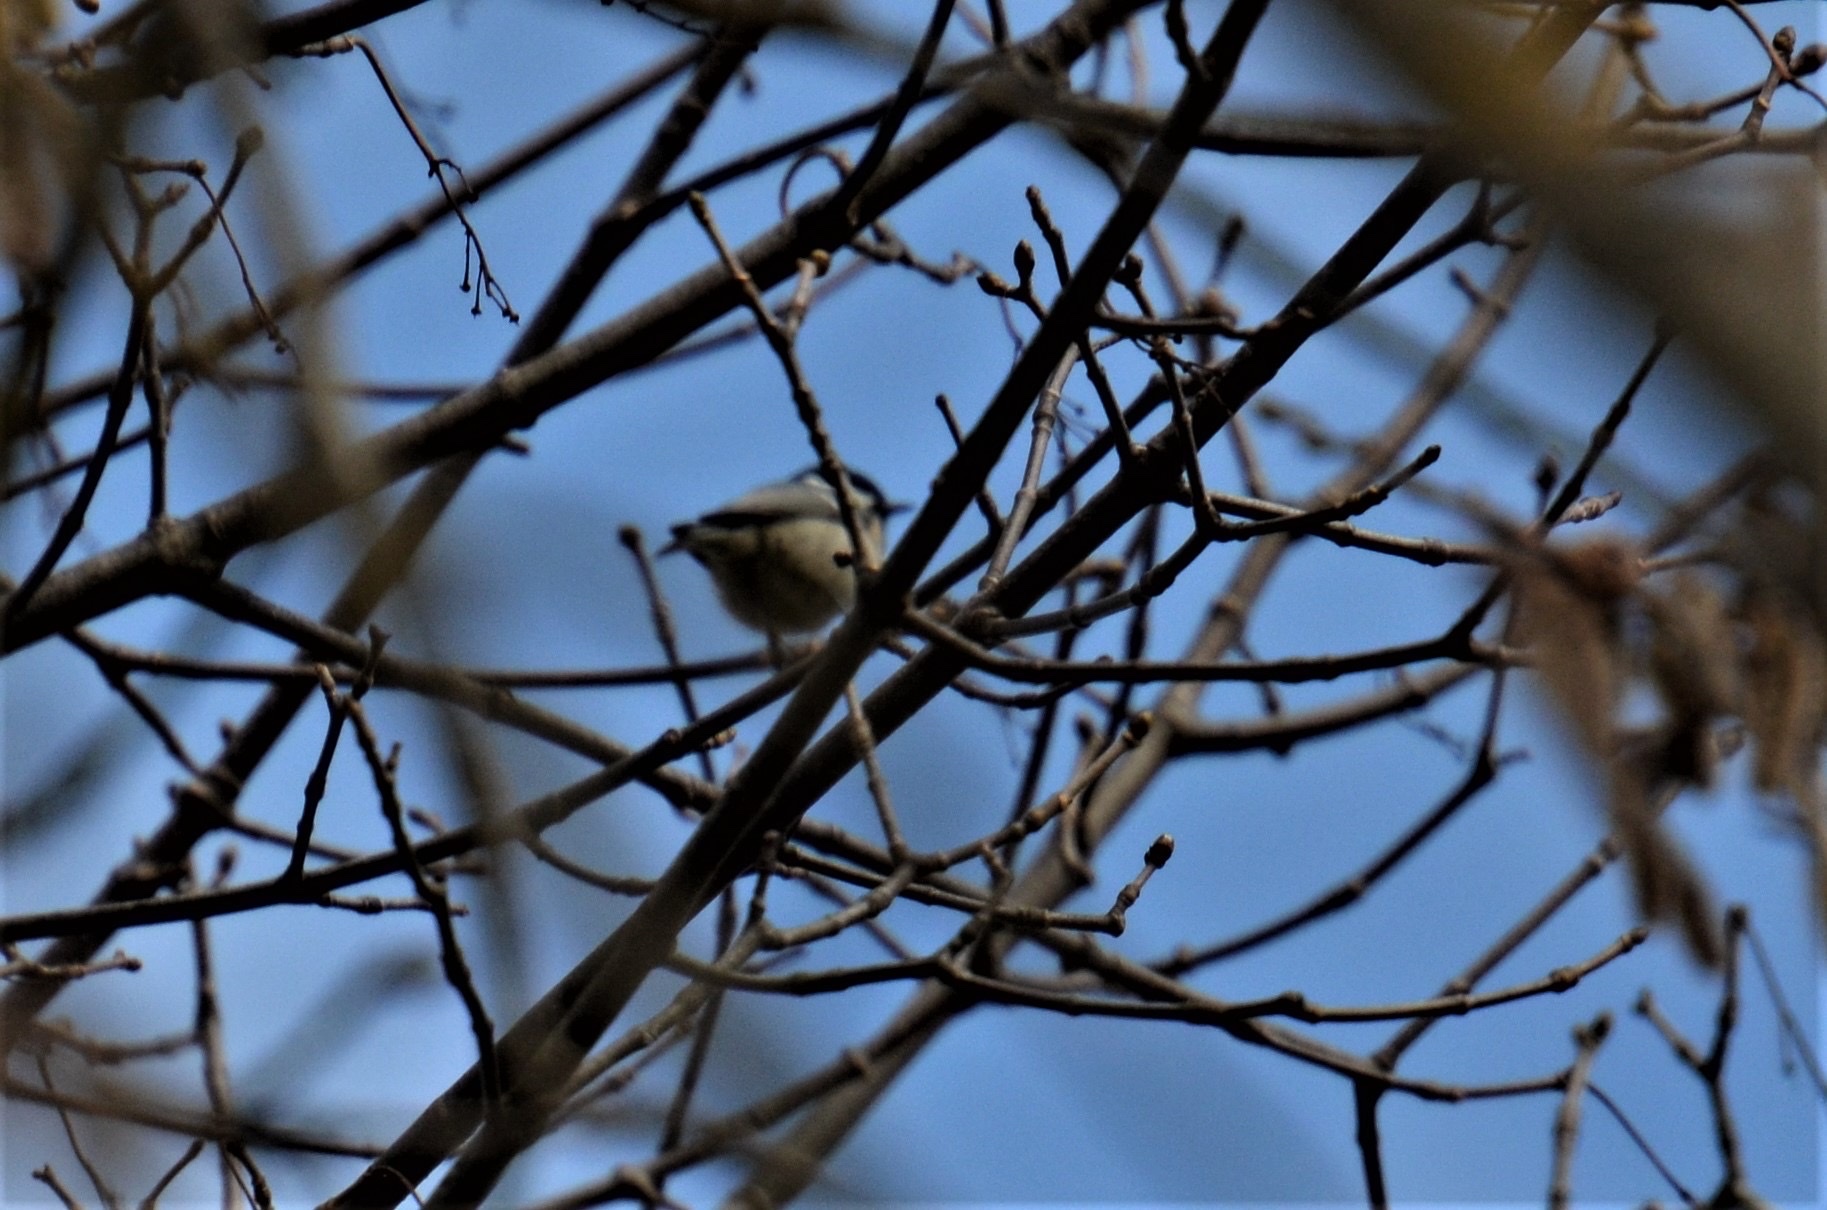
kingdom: Animalia
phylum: Chordata
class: Aves
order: Passeriformes
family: Paridae
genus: Periparus
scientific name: Periparus ater
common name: Coal tit
